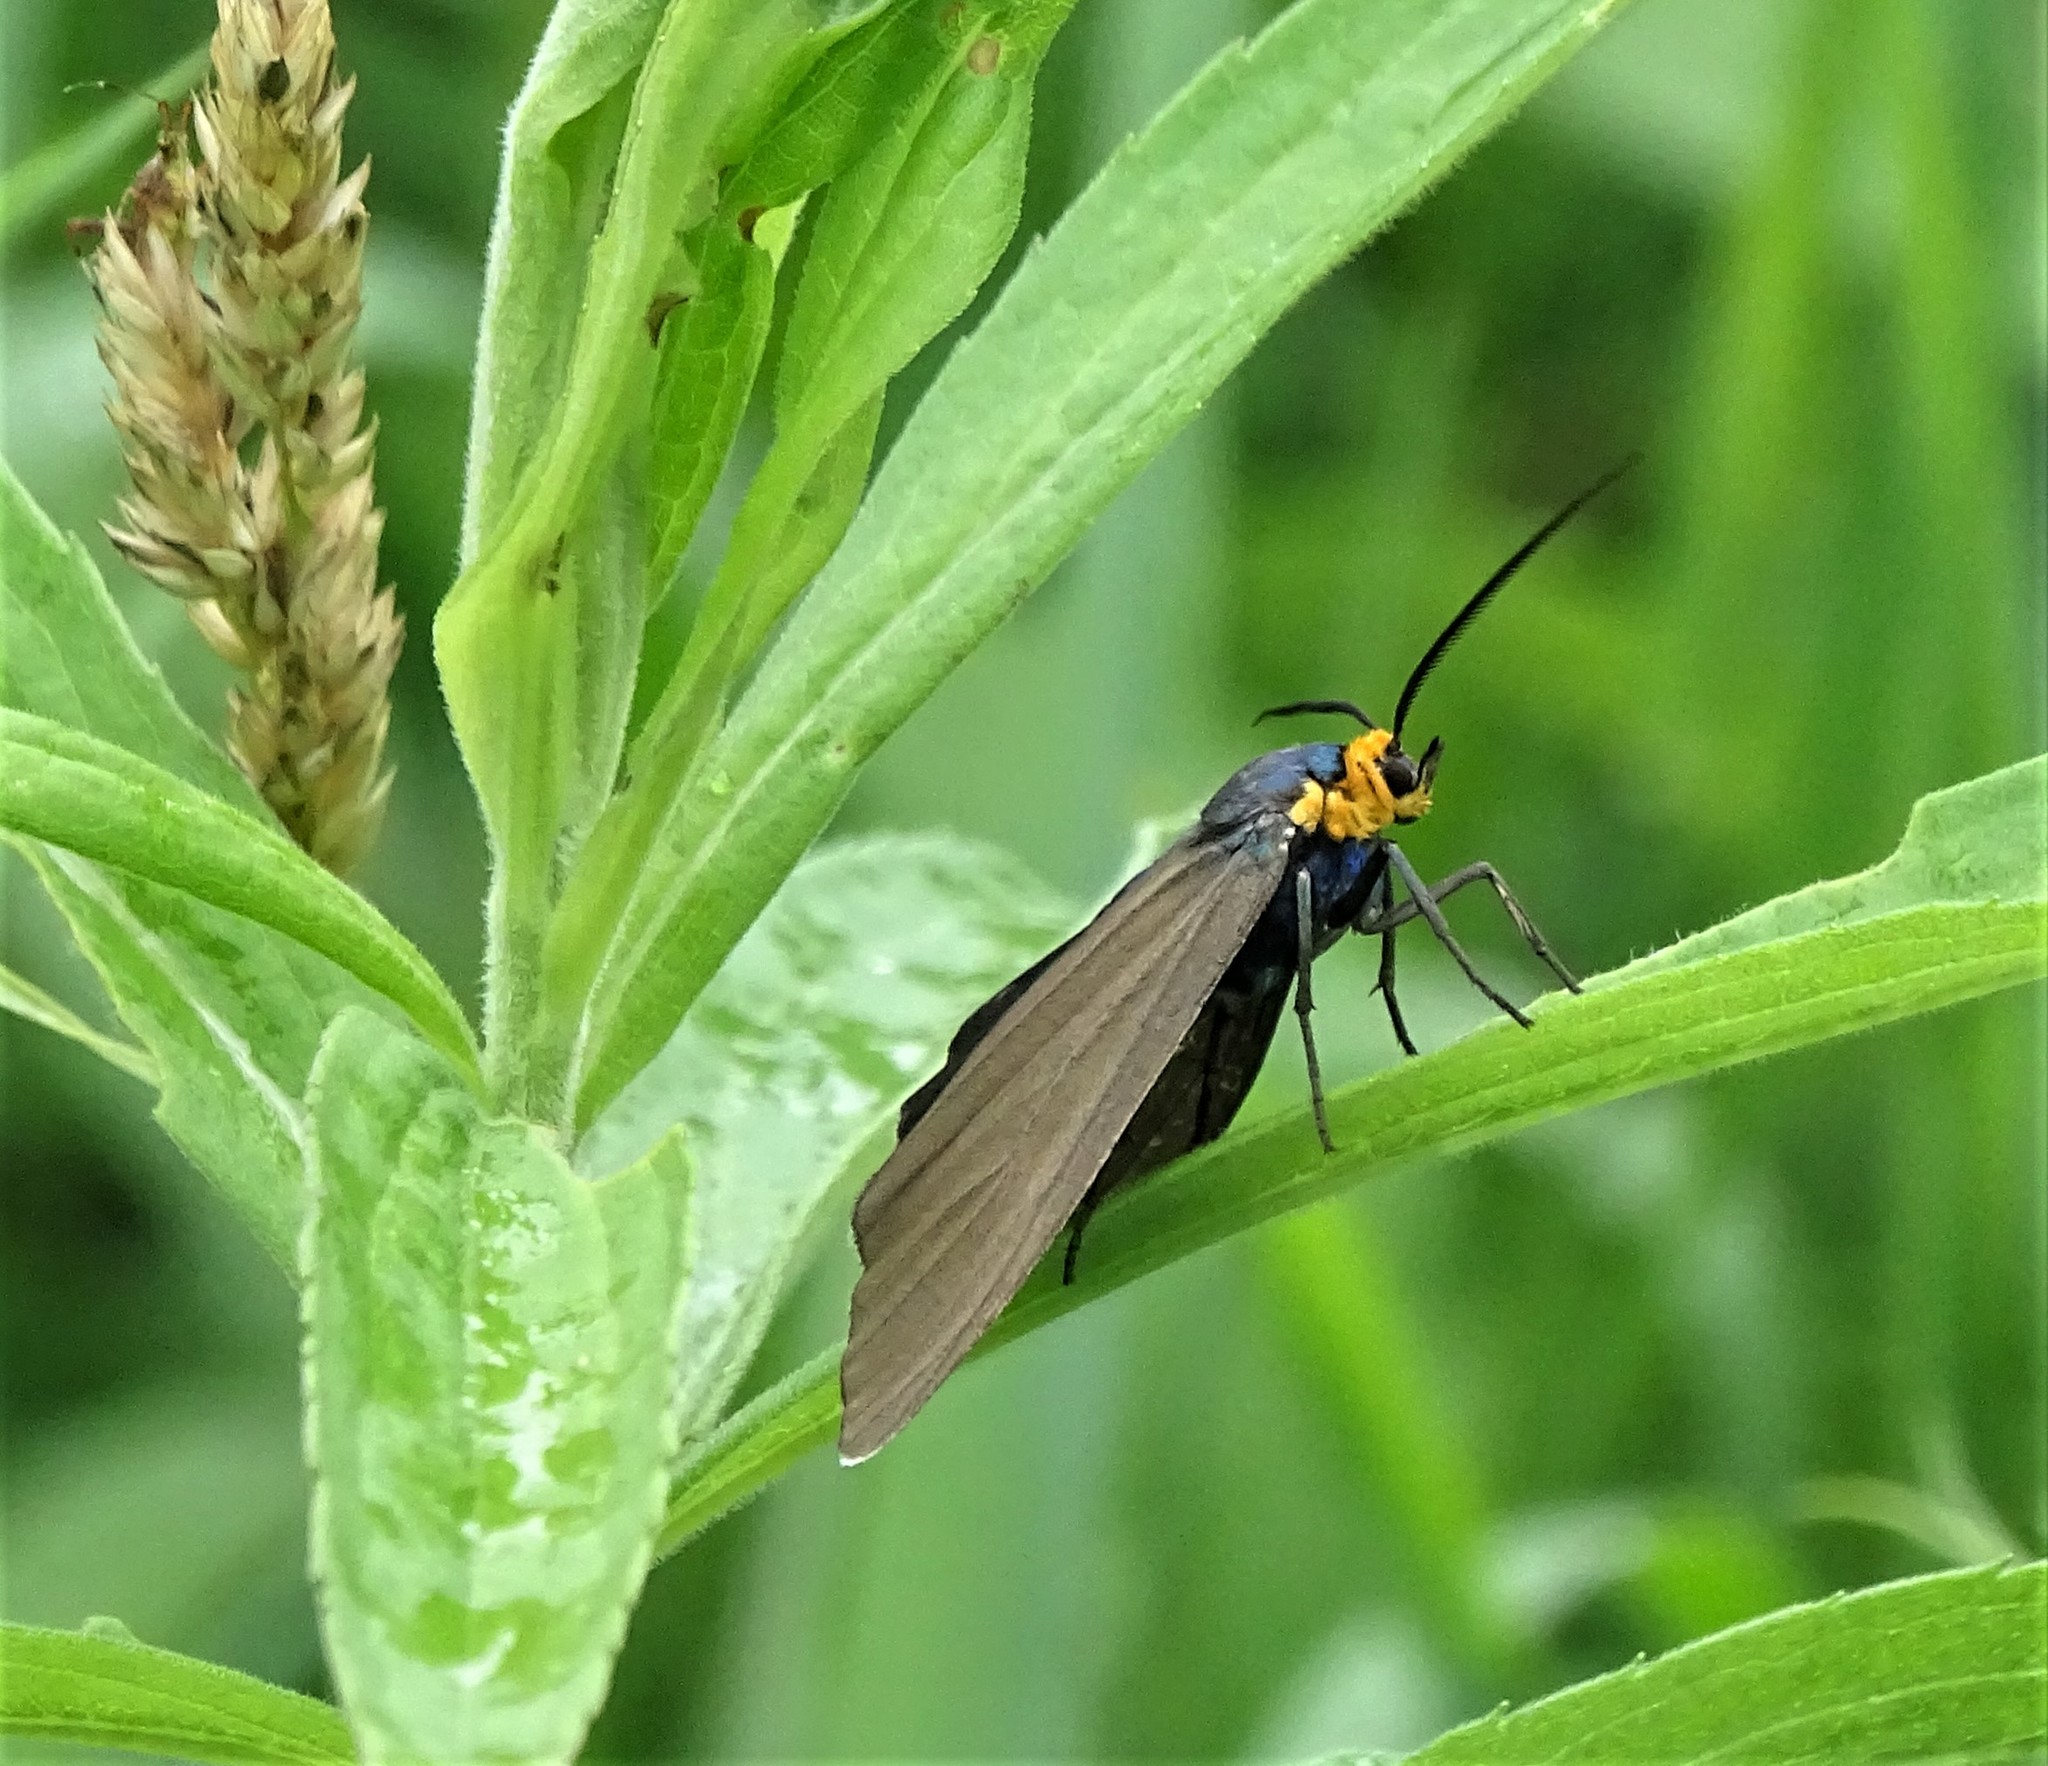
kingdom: Animalia
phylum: Arthropoda
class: Insecta
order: Lepidoptera
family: Erebidae
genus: Ctenucha
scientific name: Ctenucha virginica
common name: Virginia ctenucha moth
